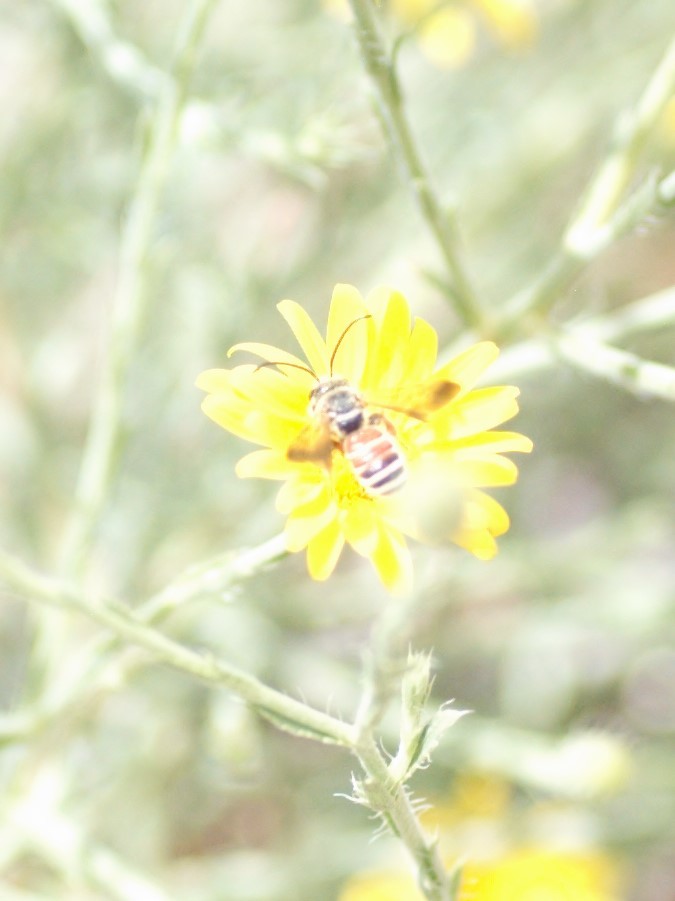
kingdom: Animalia
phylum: Arthropoda
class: Insecta
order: Hymenoptera
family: Halictidae
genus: Dieunomia
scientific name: Dieunomia nevadensis
